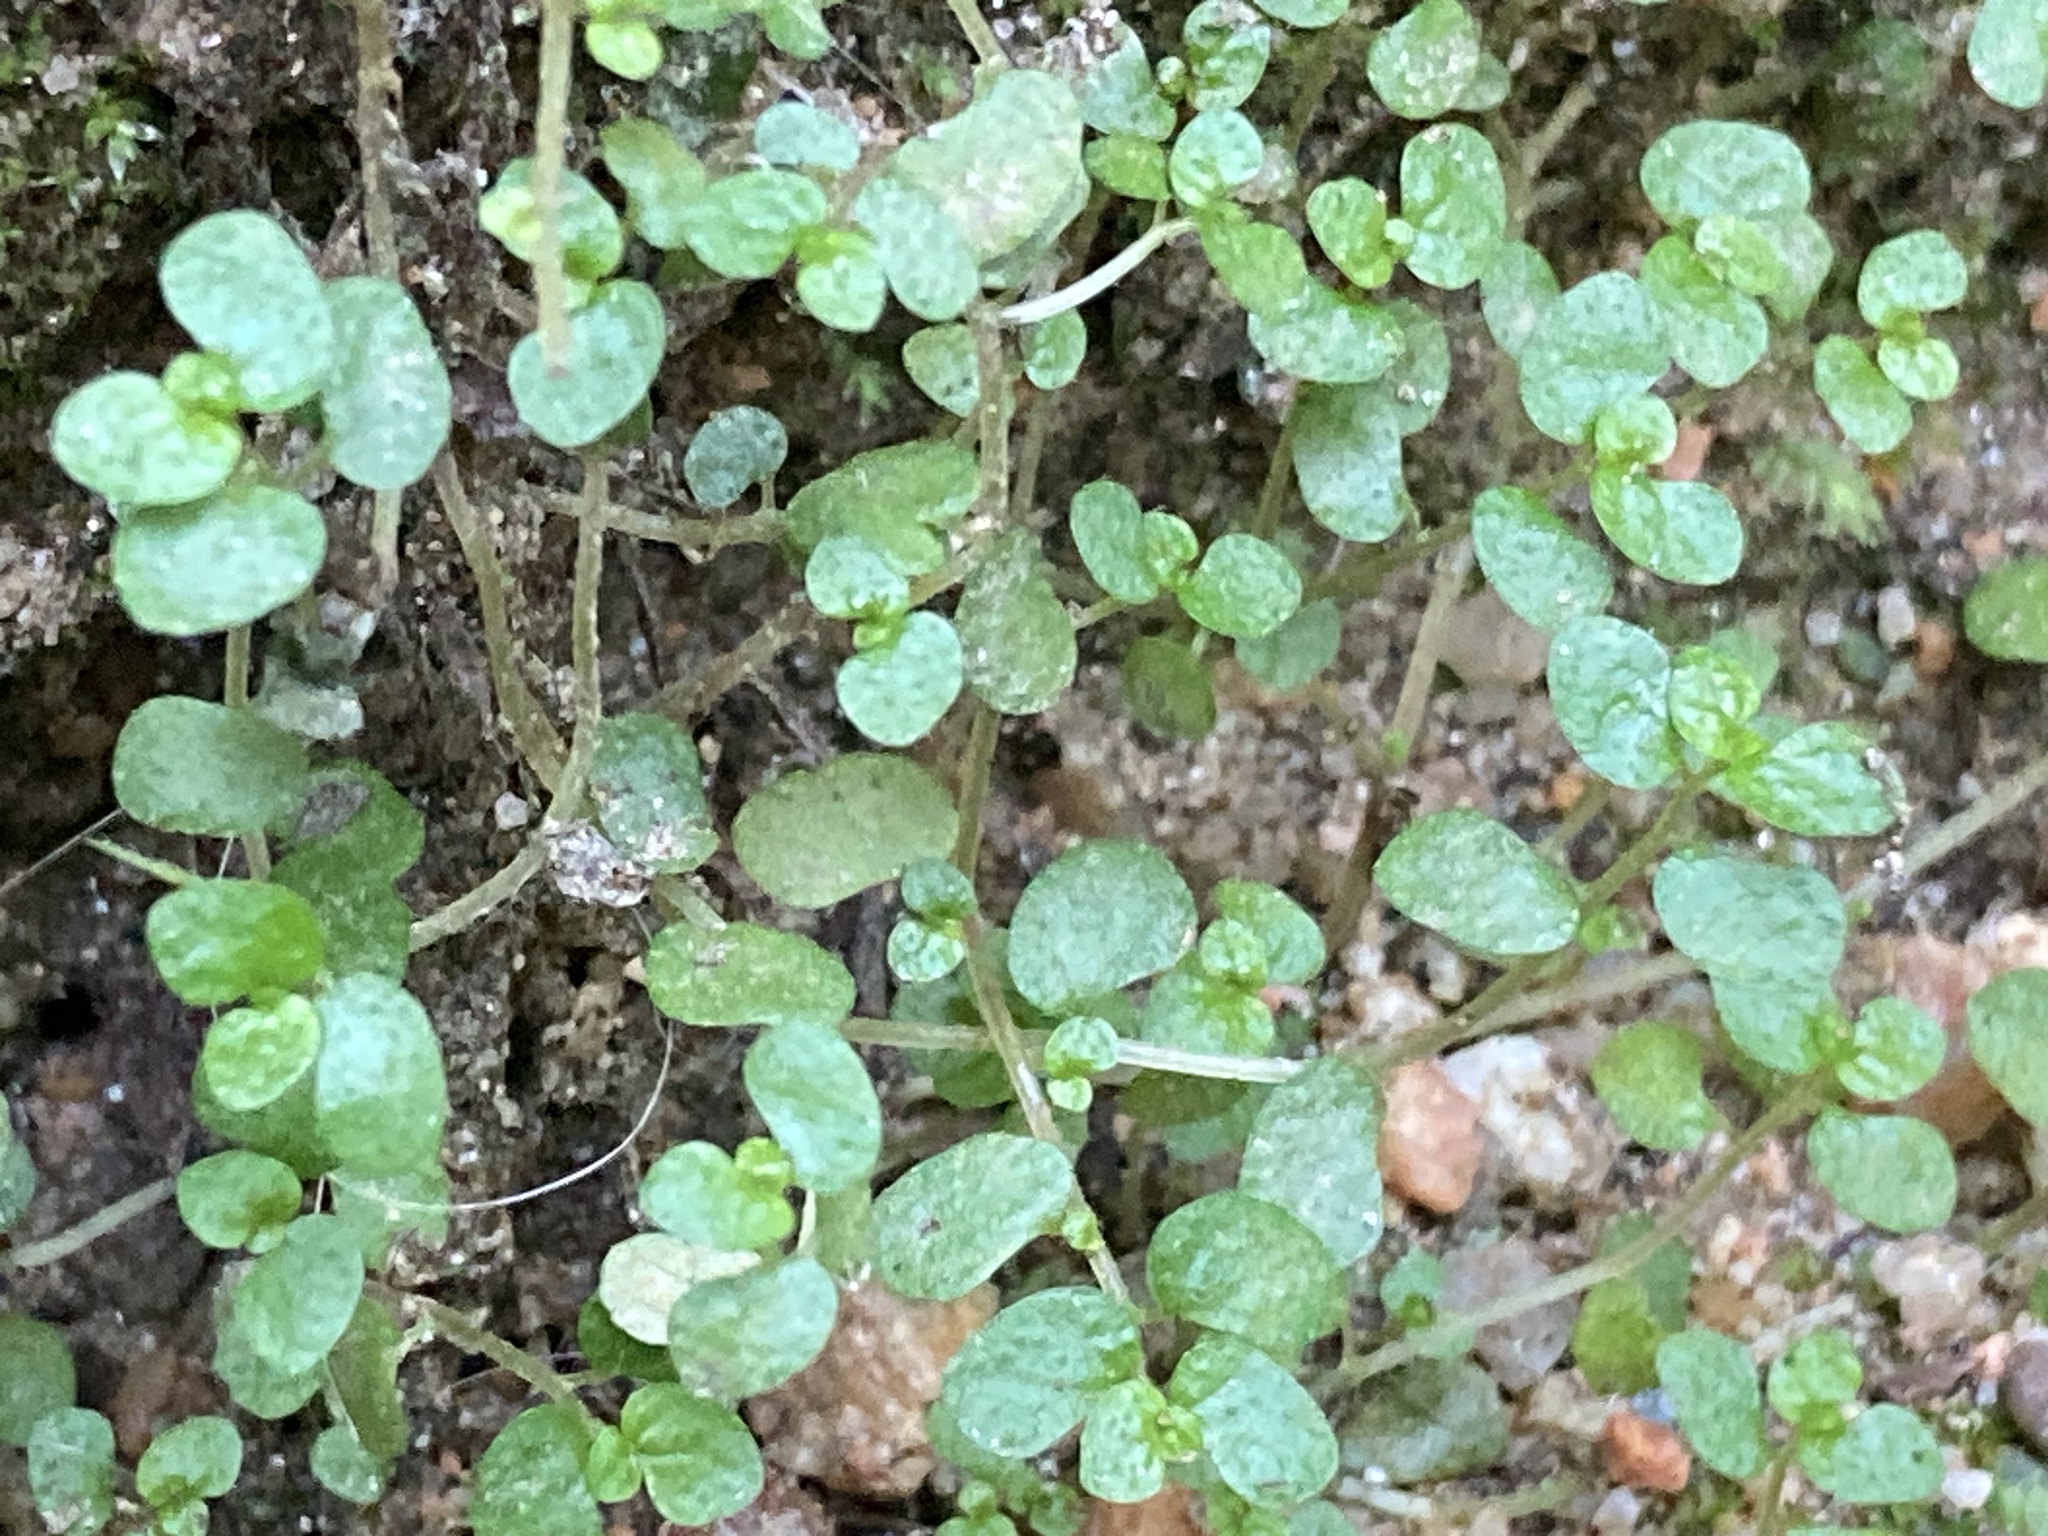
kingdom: Plantae
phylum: Tracheophyta
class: Magnoliopsida
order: Rosales
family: Urticaceae
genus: Soleirolia
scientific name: Soleirolia soleirolii
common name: Mind-your-own-business
